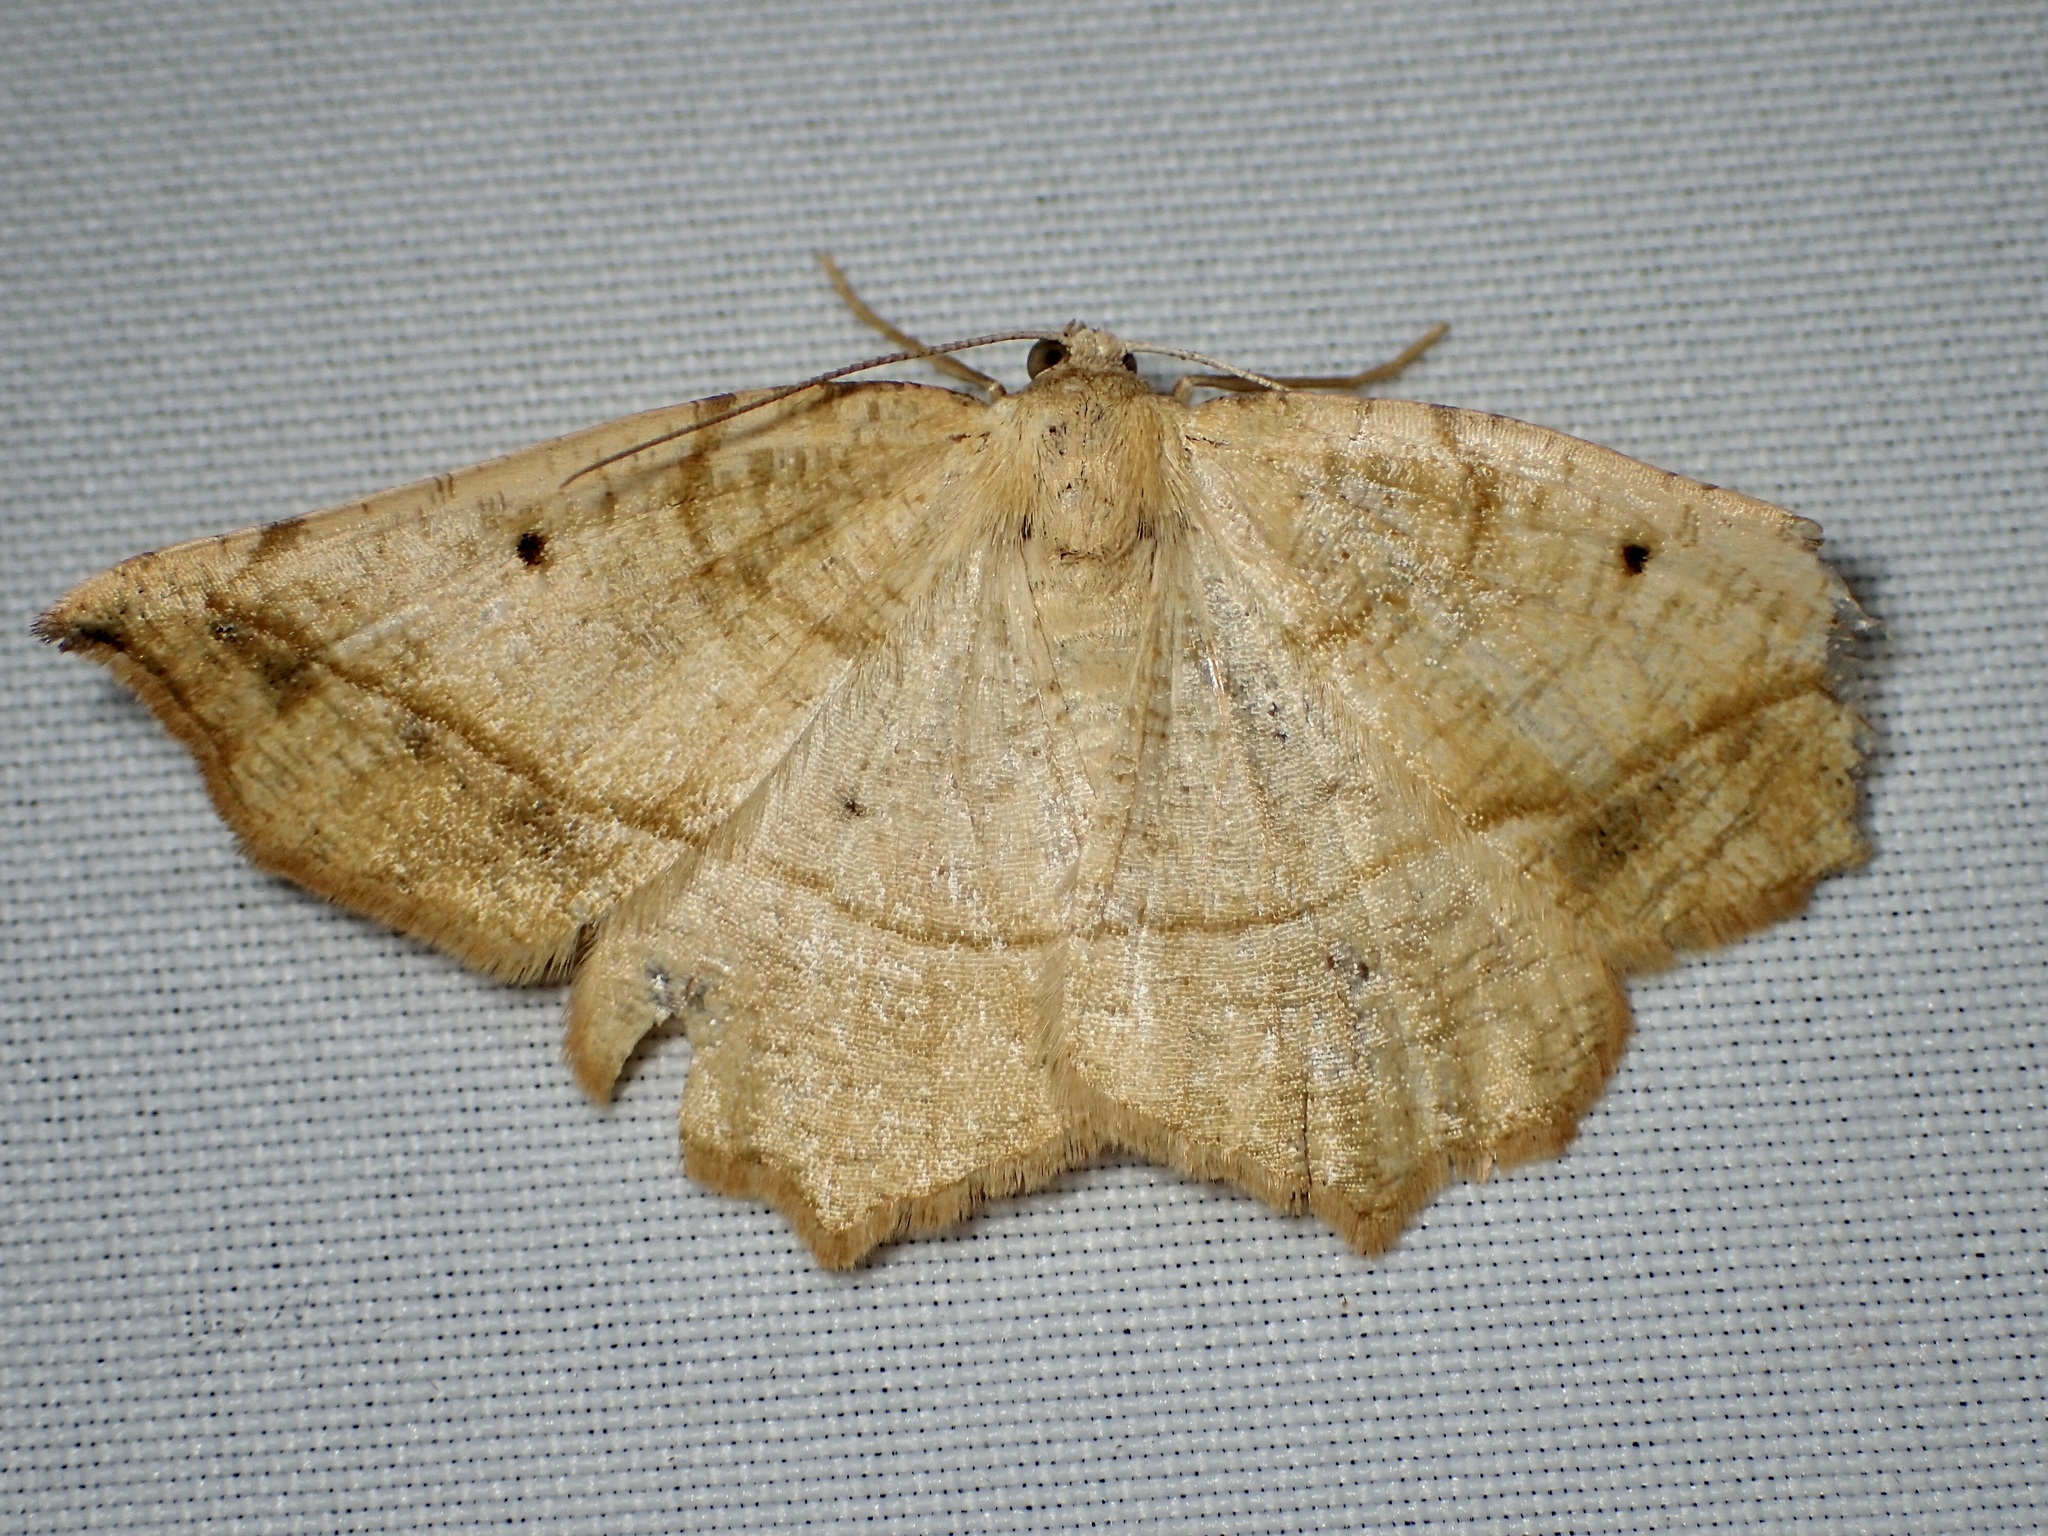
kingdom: Animalia
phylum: Arthropoda
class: Insecta
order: Lepidoptera
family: Geometridae
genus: Eusarca
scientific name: Eusarca galbanaria
